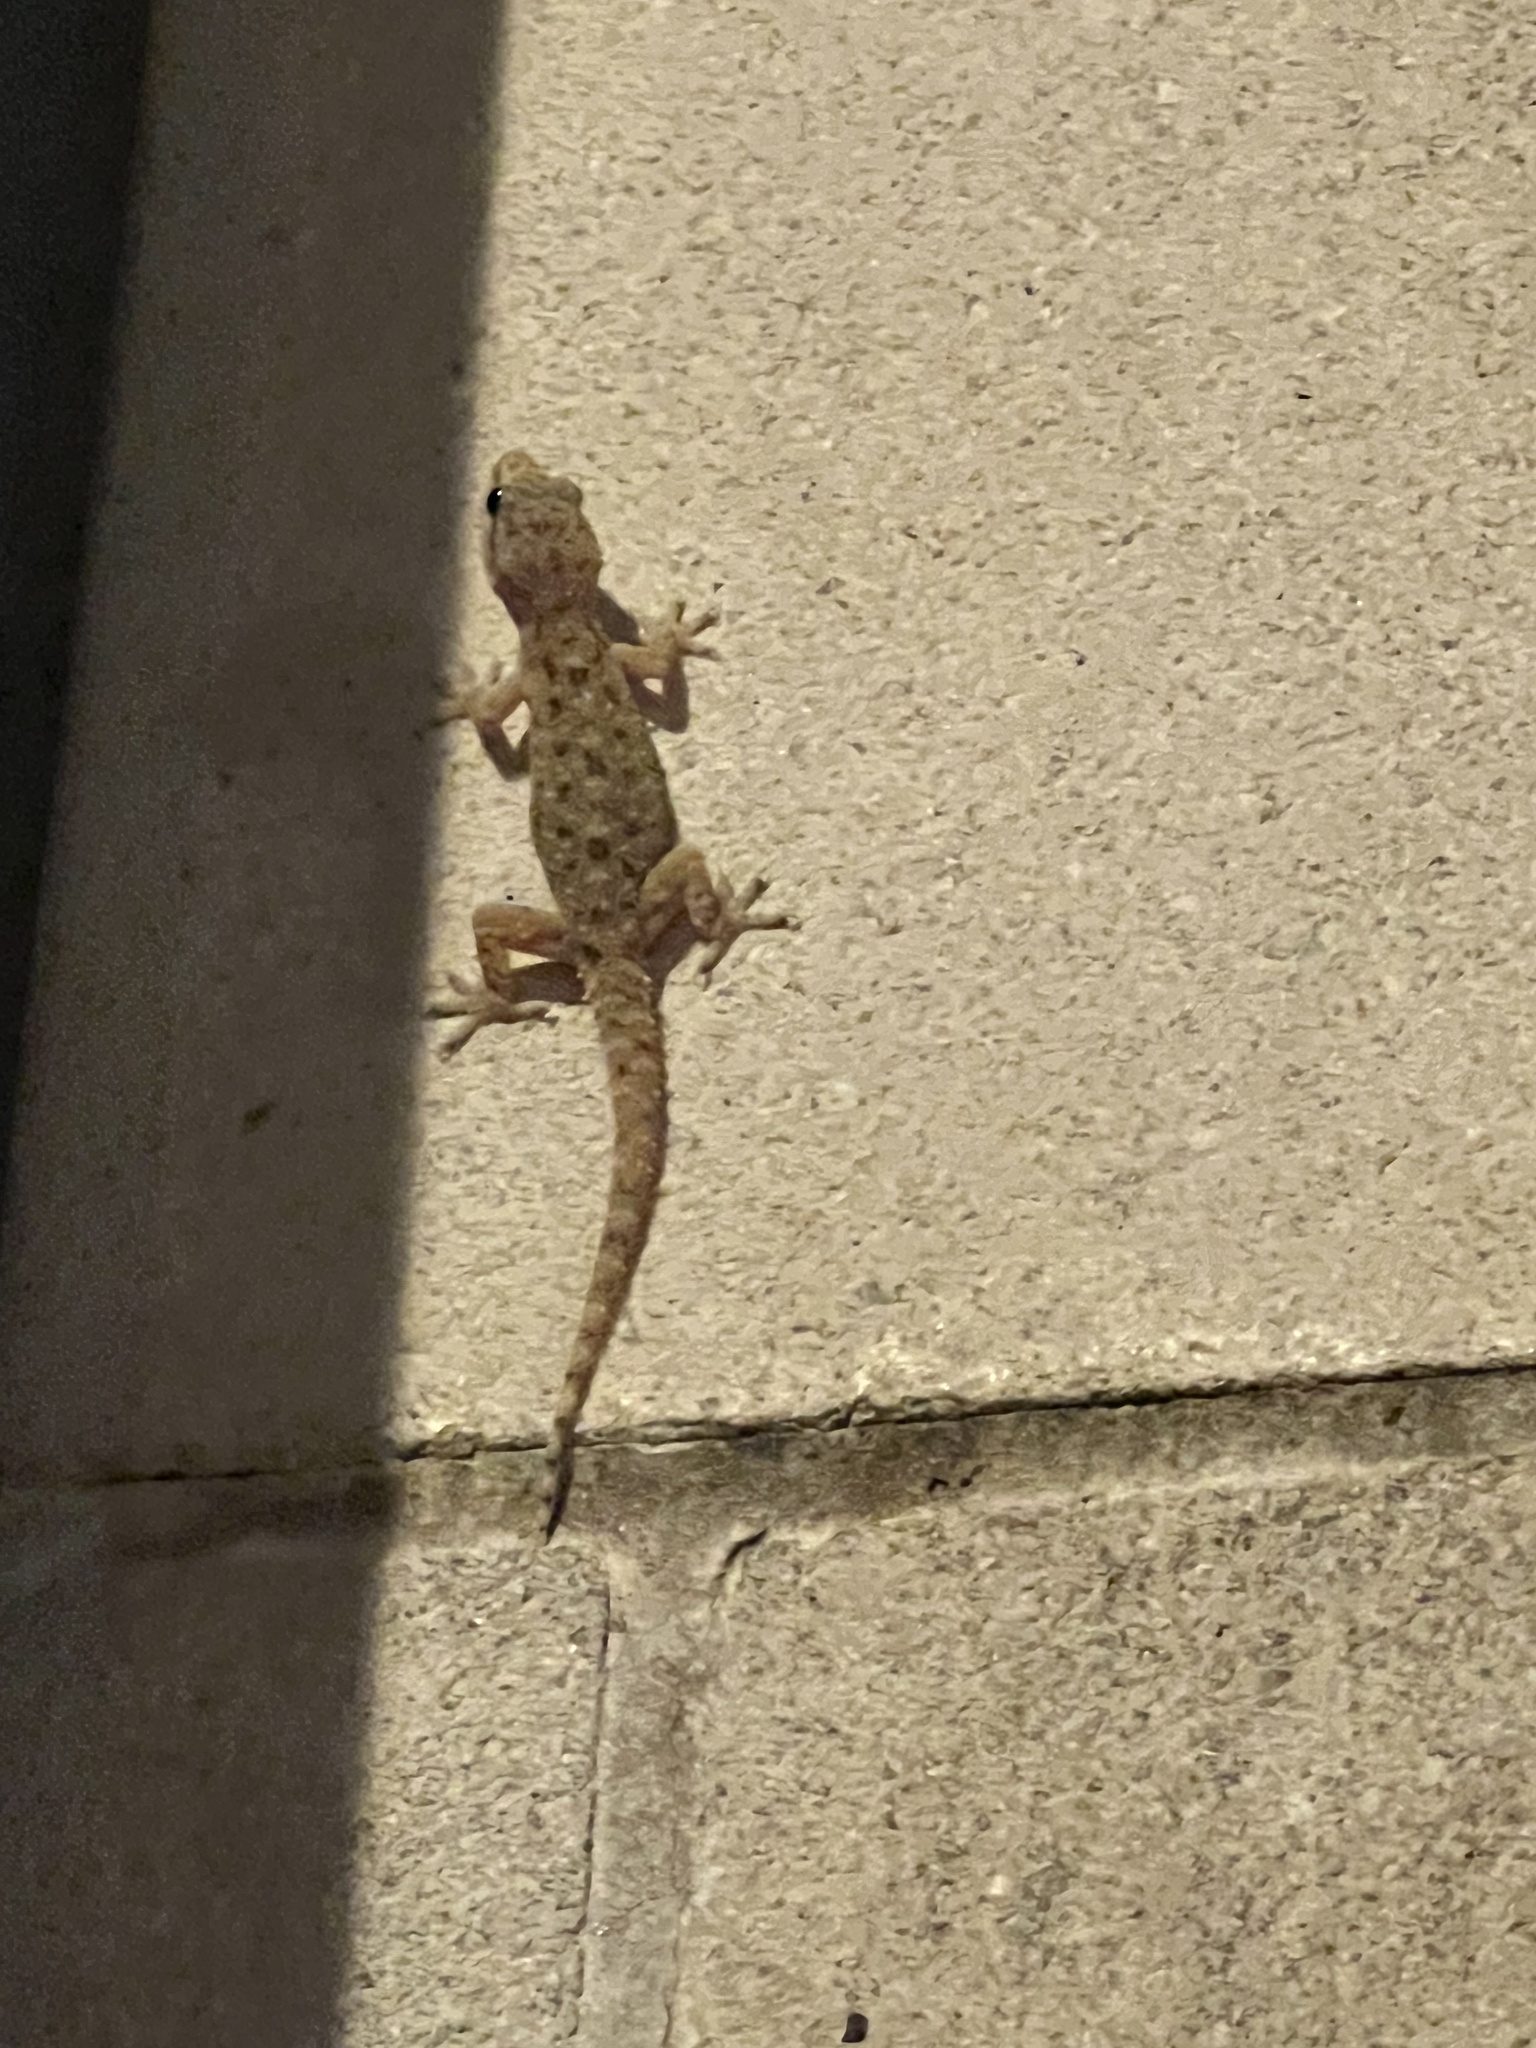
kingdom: Animalia
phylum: Chordata
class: Squamata
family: Gekkonidae
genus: Hemidactylus
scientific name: Hemidactylus parvimaculatus
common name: Spotted house gecko
